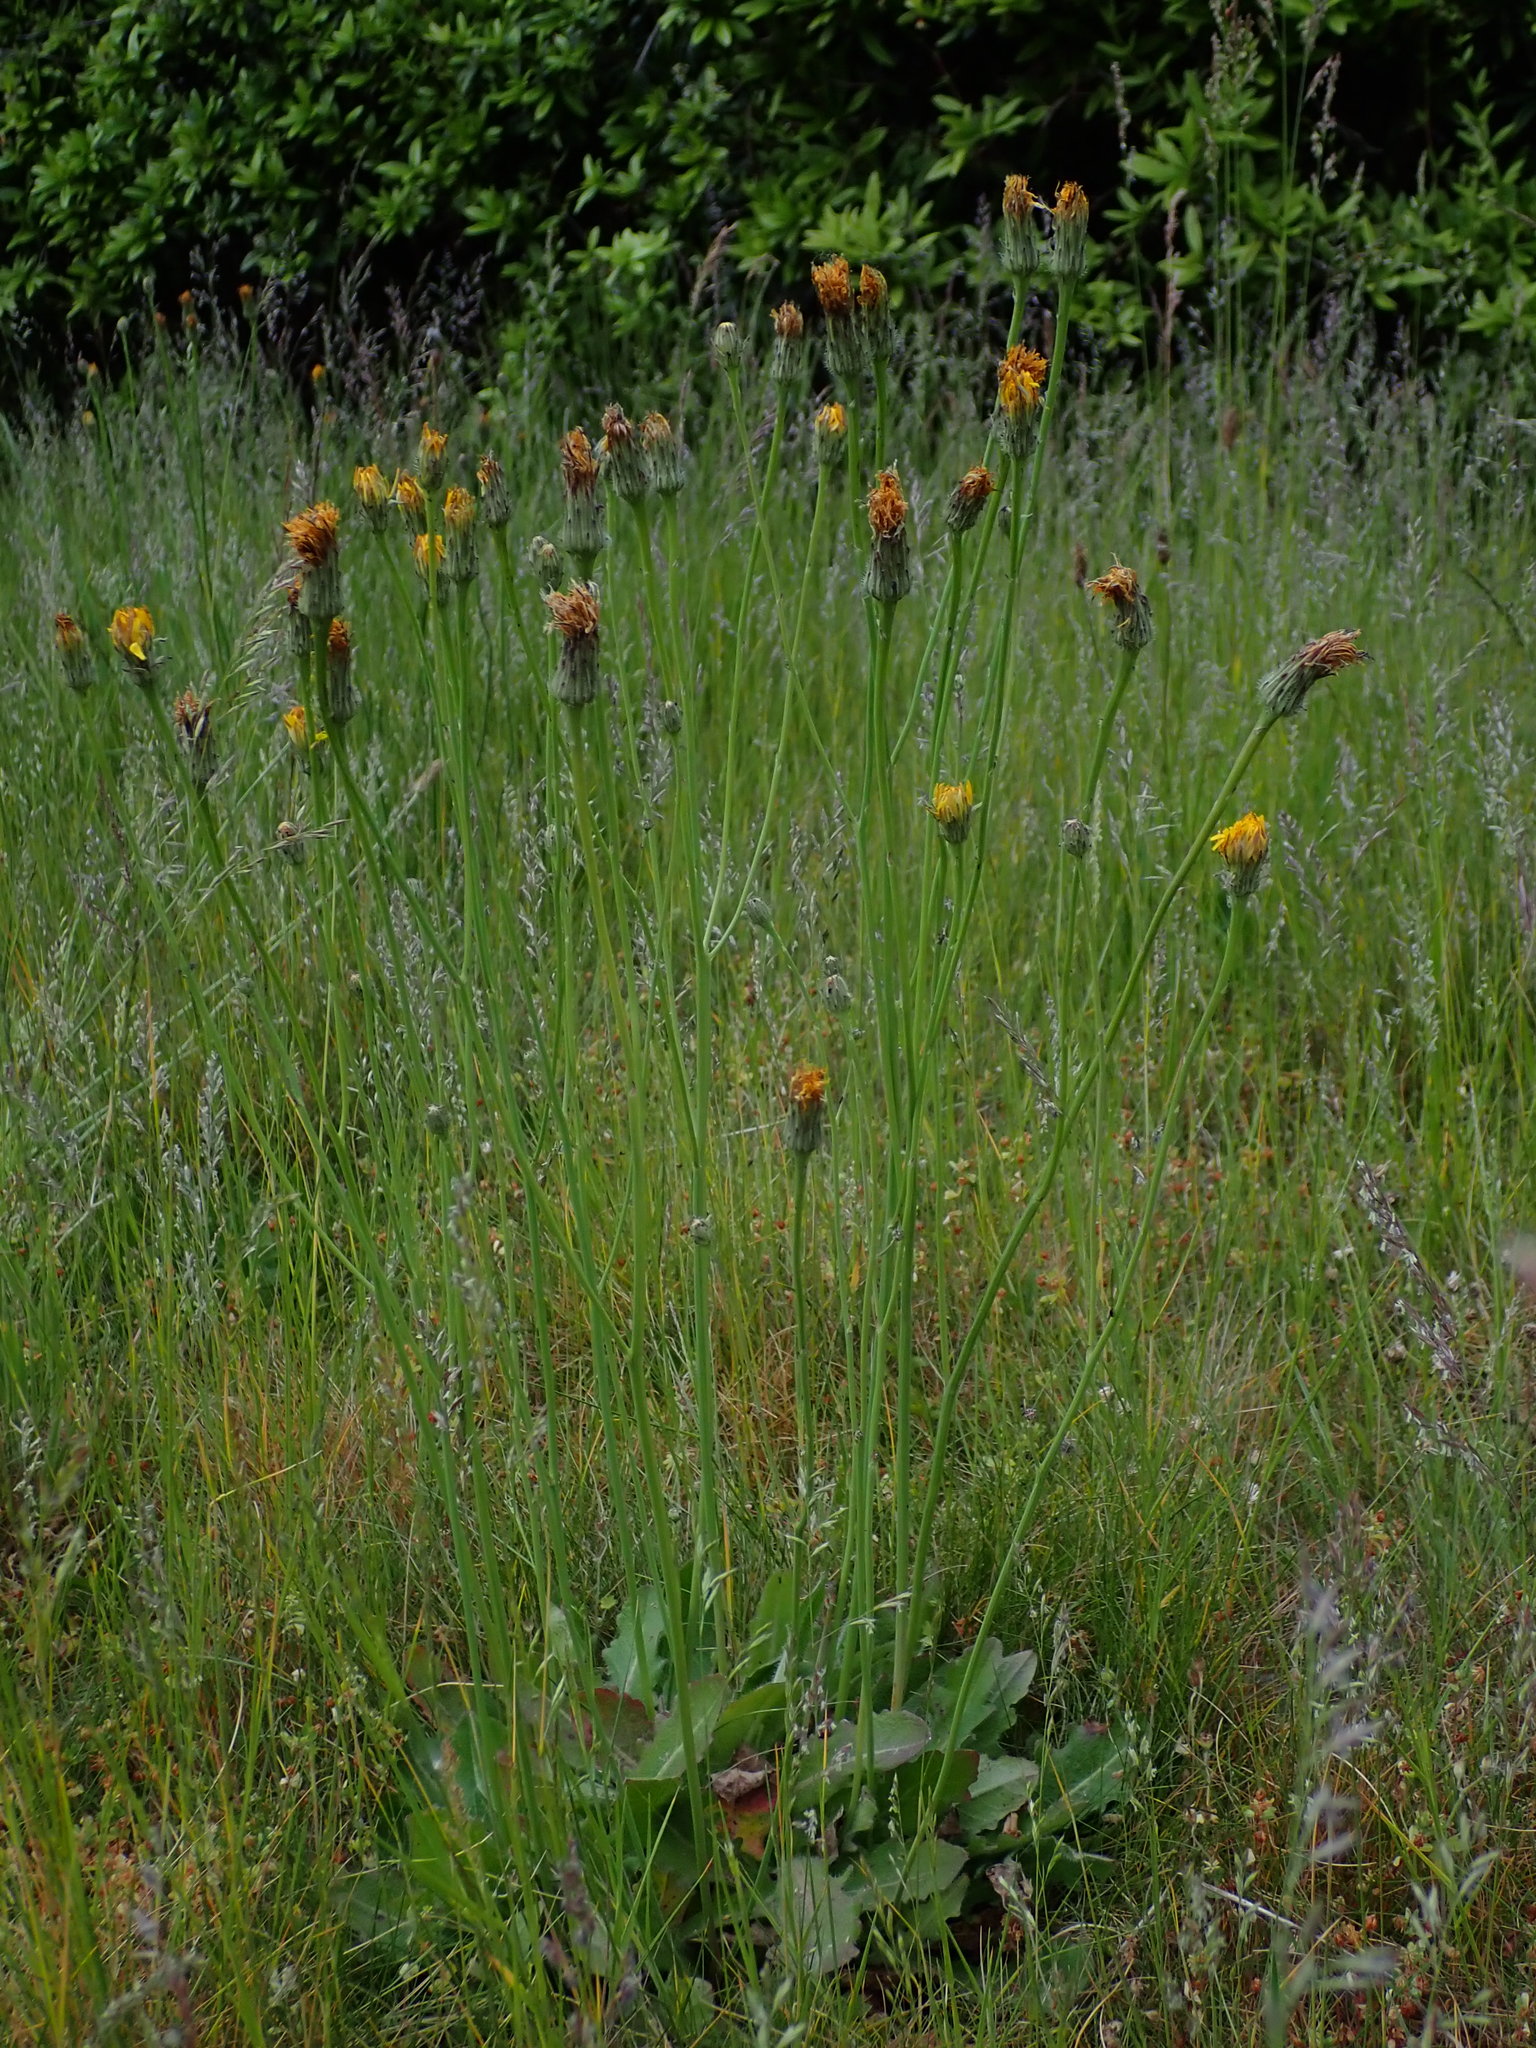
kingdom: Plantae
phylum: Tracheophyta
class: Magnoliopsida
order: Asterales
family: Asteraceae
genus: Hypochaeris
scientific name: Hypochaeris radicata
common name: Flatweed
